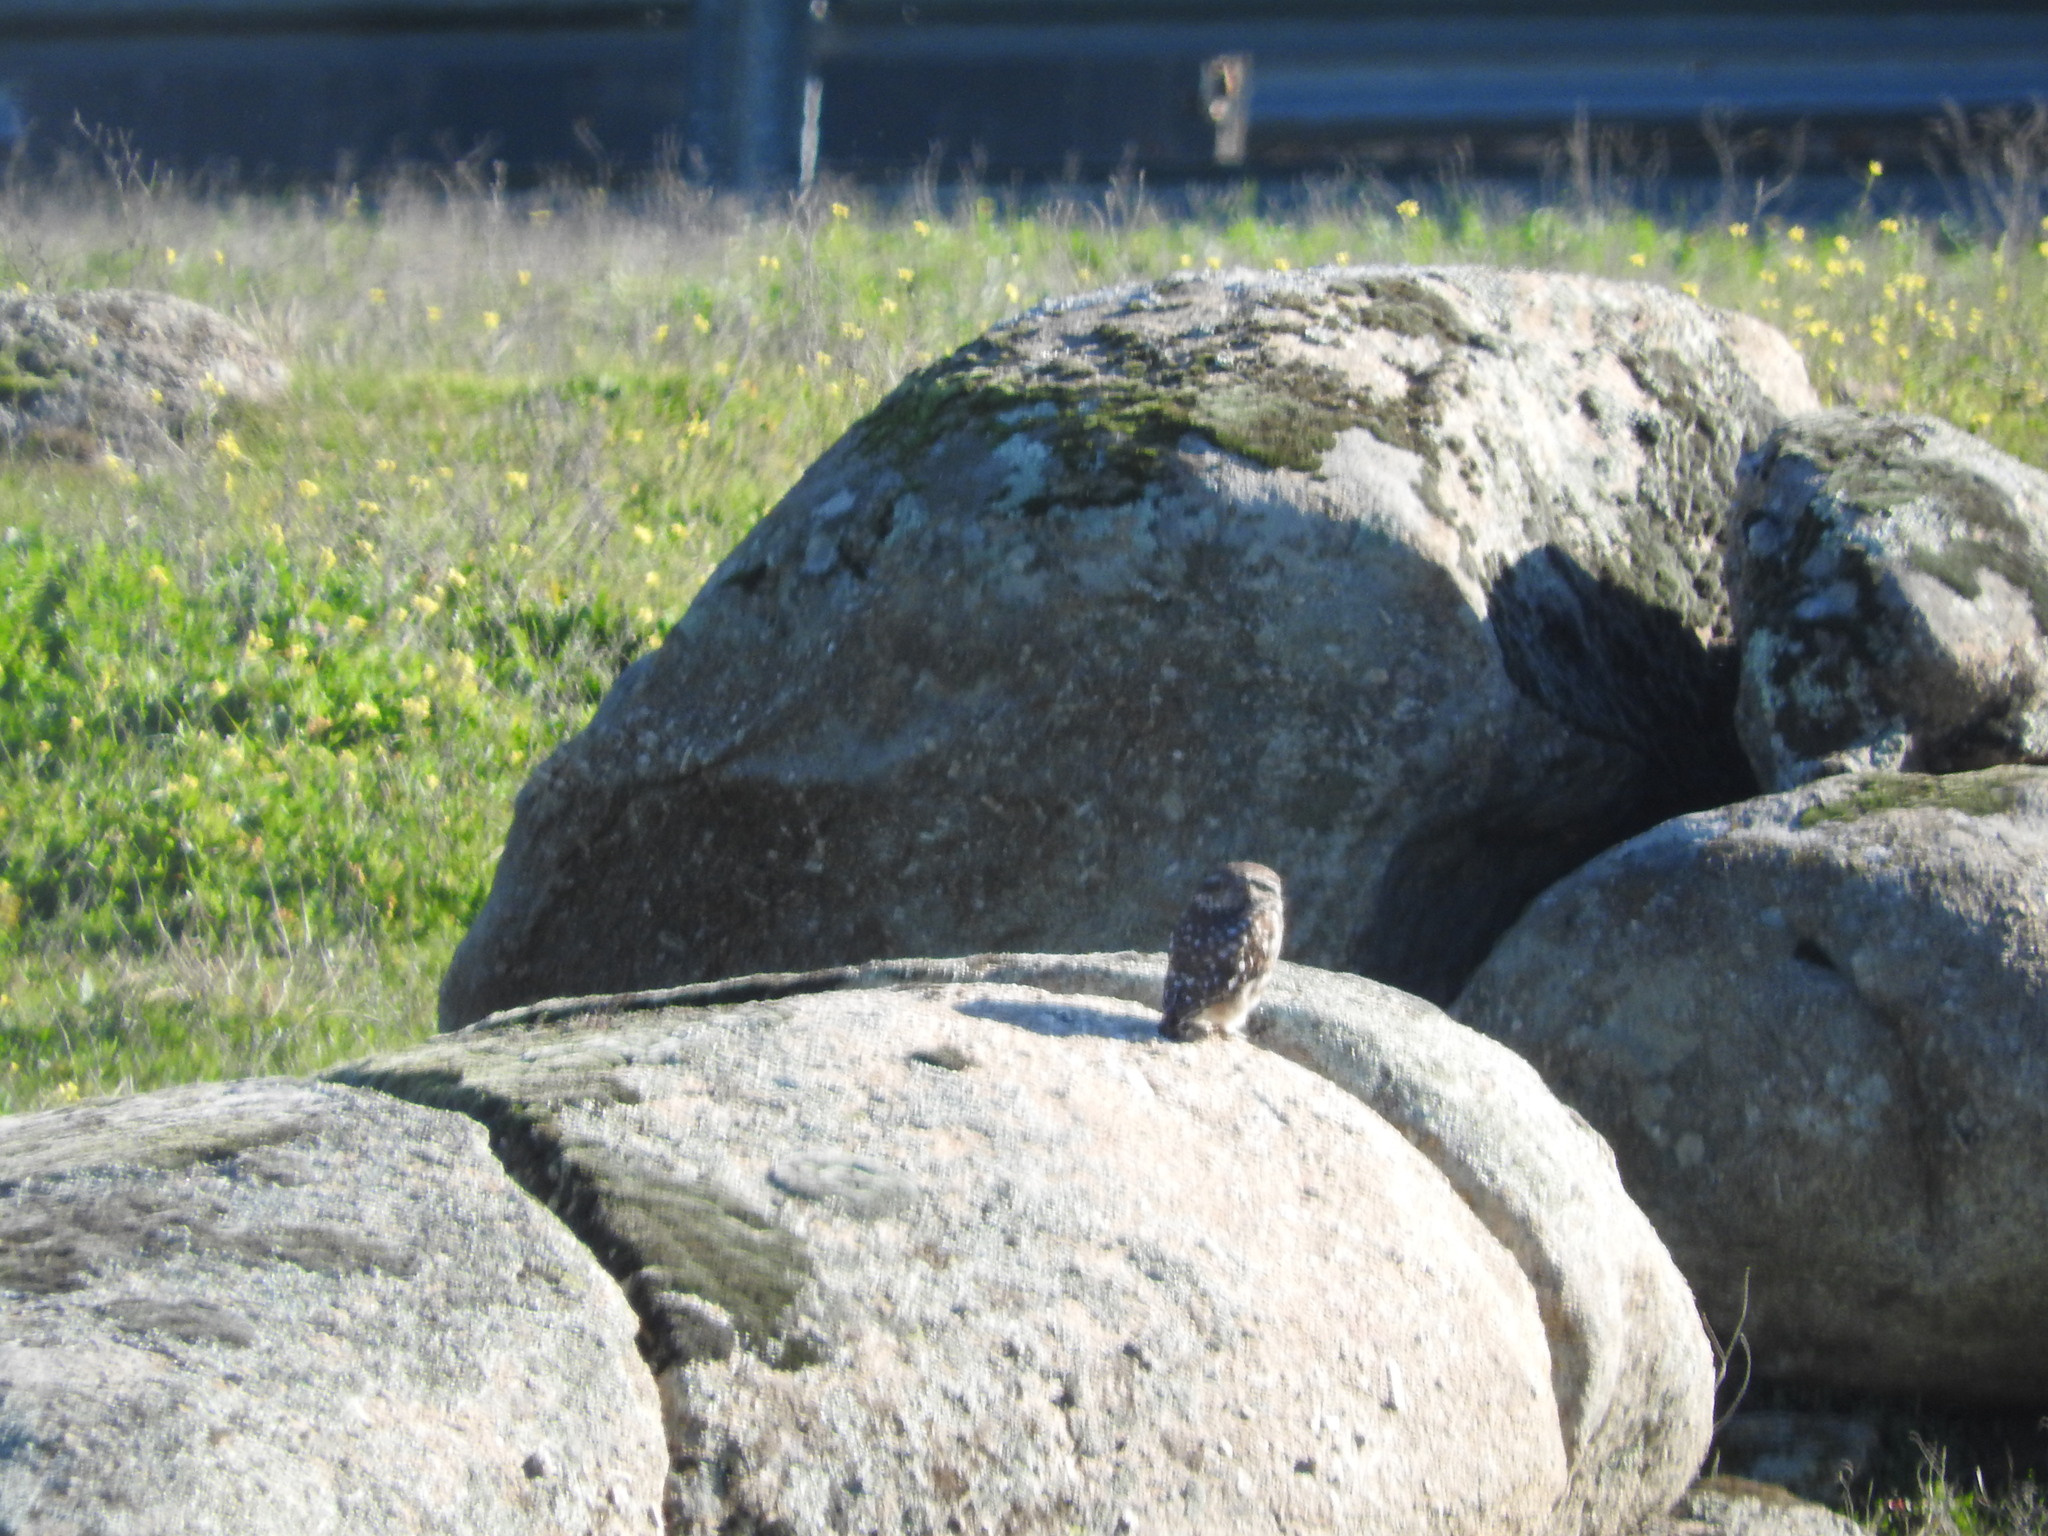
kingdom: Animalia
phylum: Chordata
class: Aves
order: Strigiformes
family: Strigidae
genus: Athene
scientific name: Athene noctua
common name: Little owl
